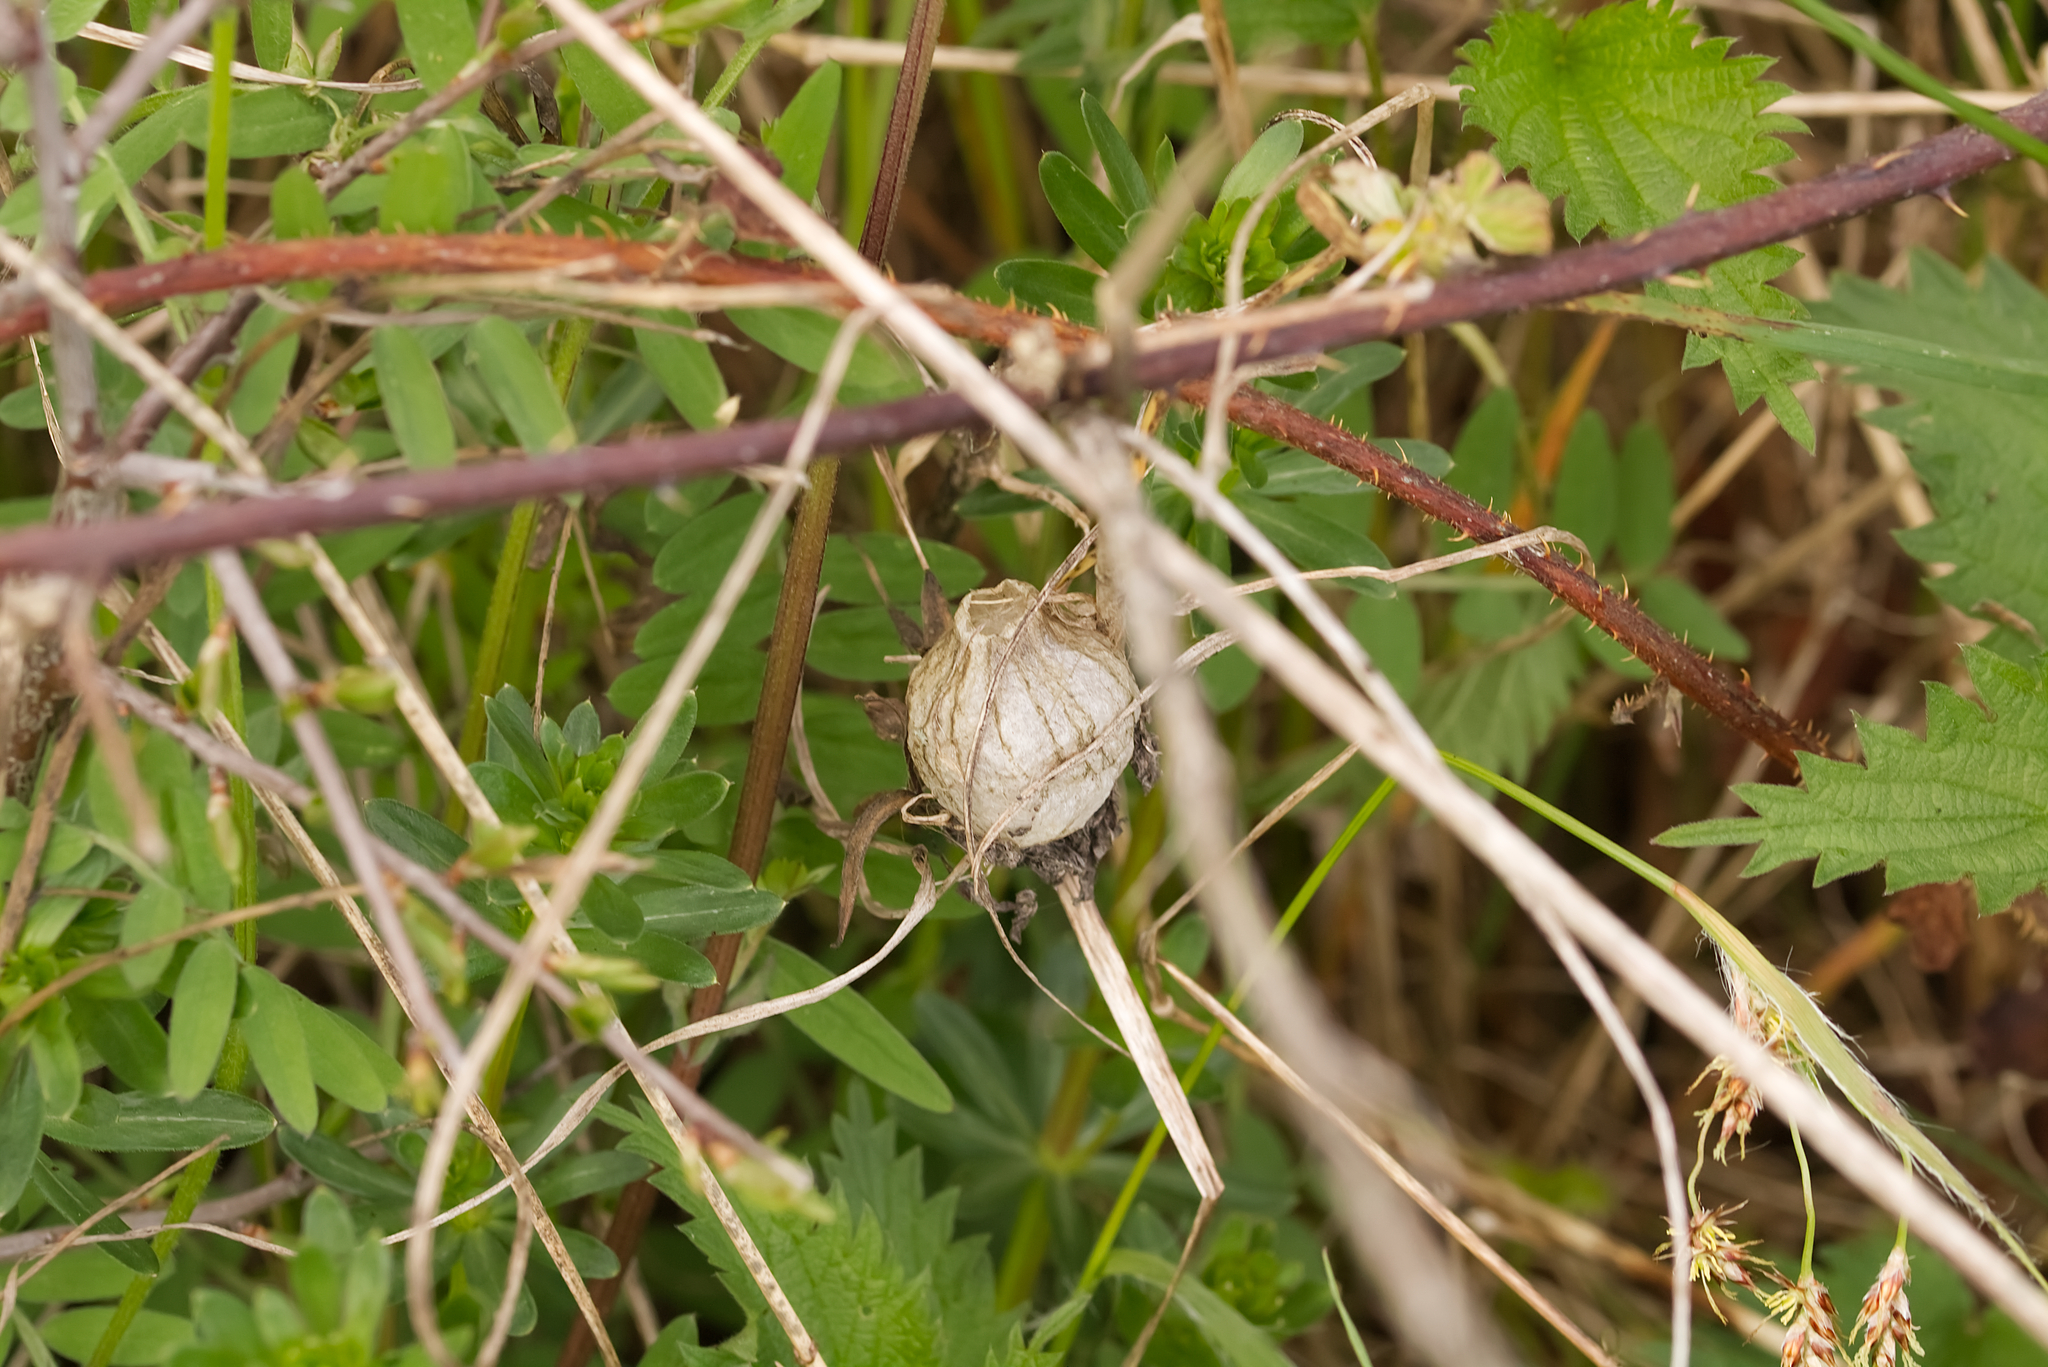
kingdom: Animalia
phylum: Arthropoda
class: Arachnida
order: Araneae
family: Araneidae
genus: Argiope
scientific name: Argiope bruennichi
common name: Wasp spider
